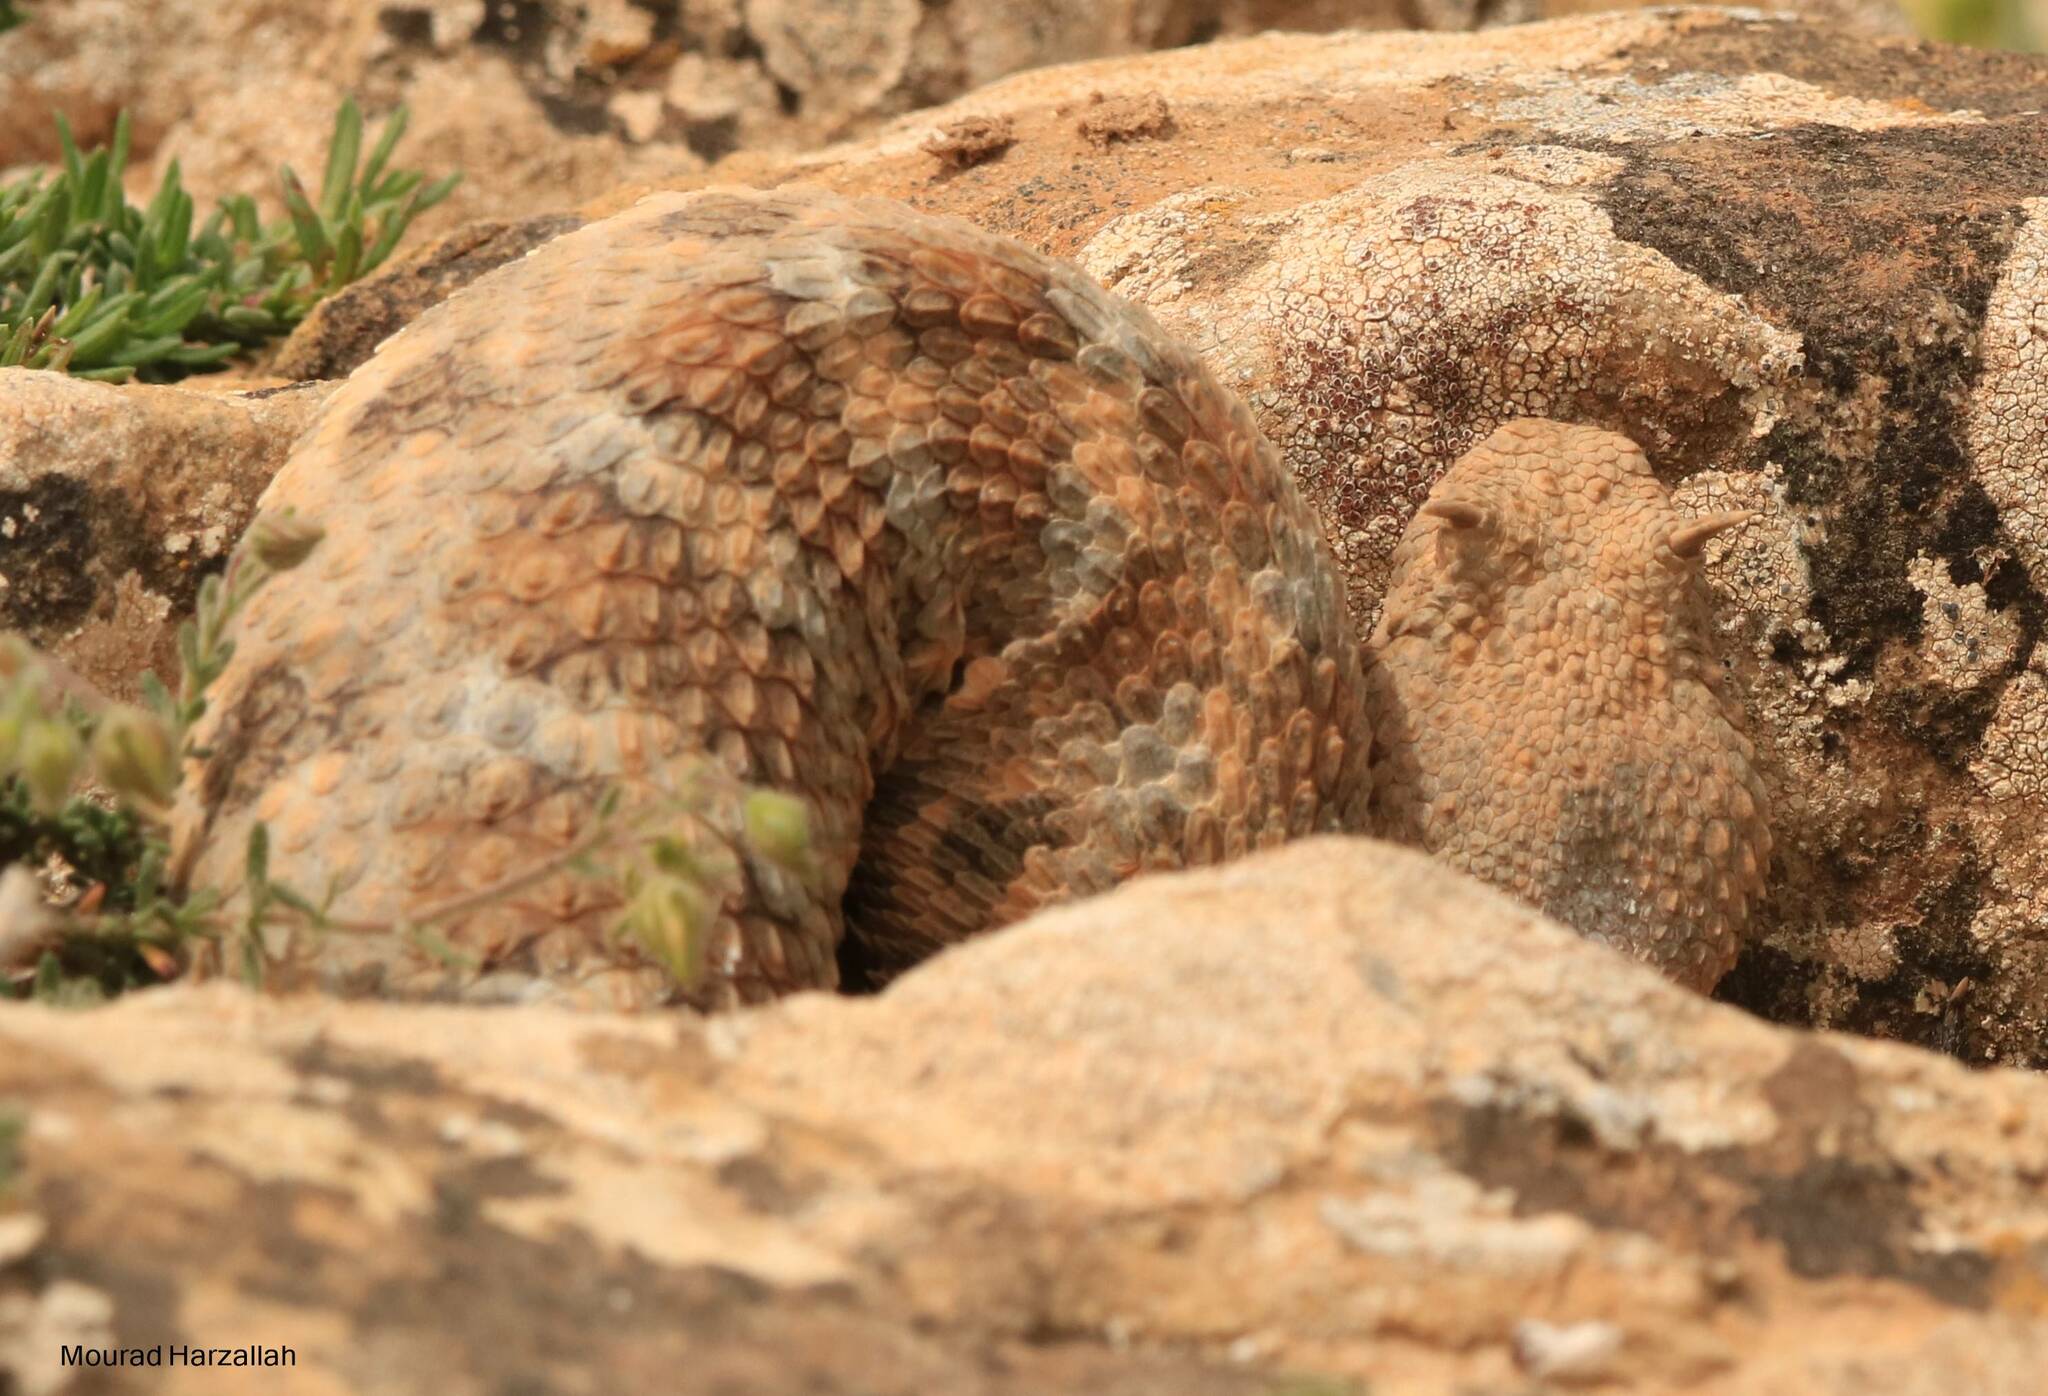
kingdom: Animalia
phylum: Chordata
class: Squamata
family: Viperidae
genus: Cerastes
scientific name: Cerastes cerastes
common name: Desert horned viper
